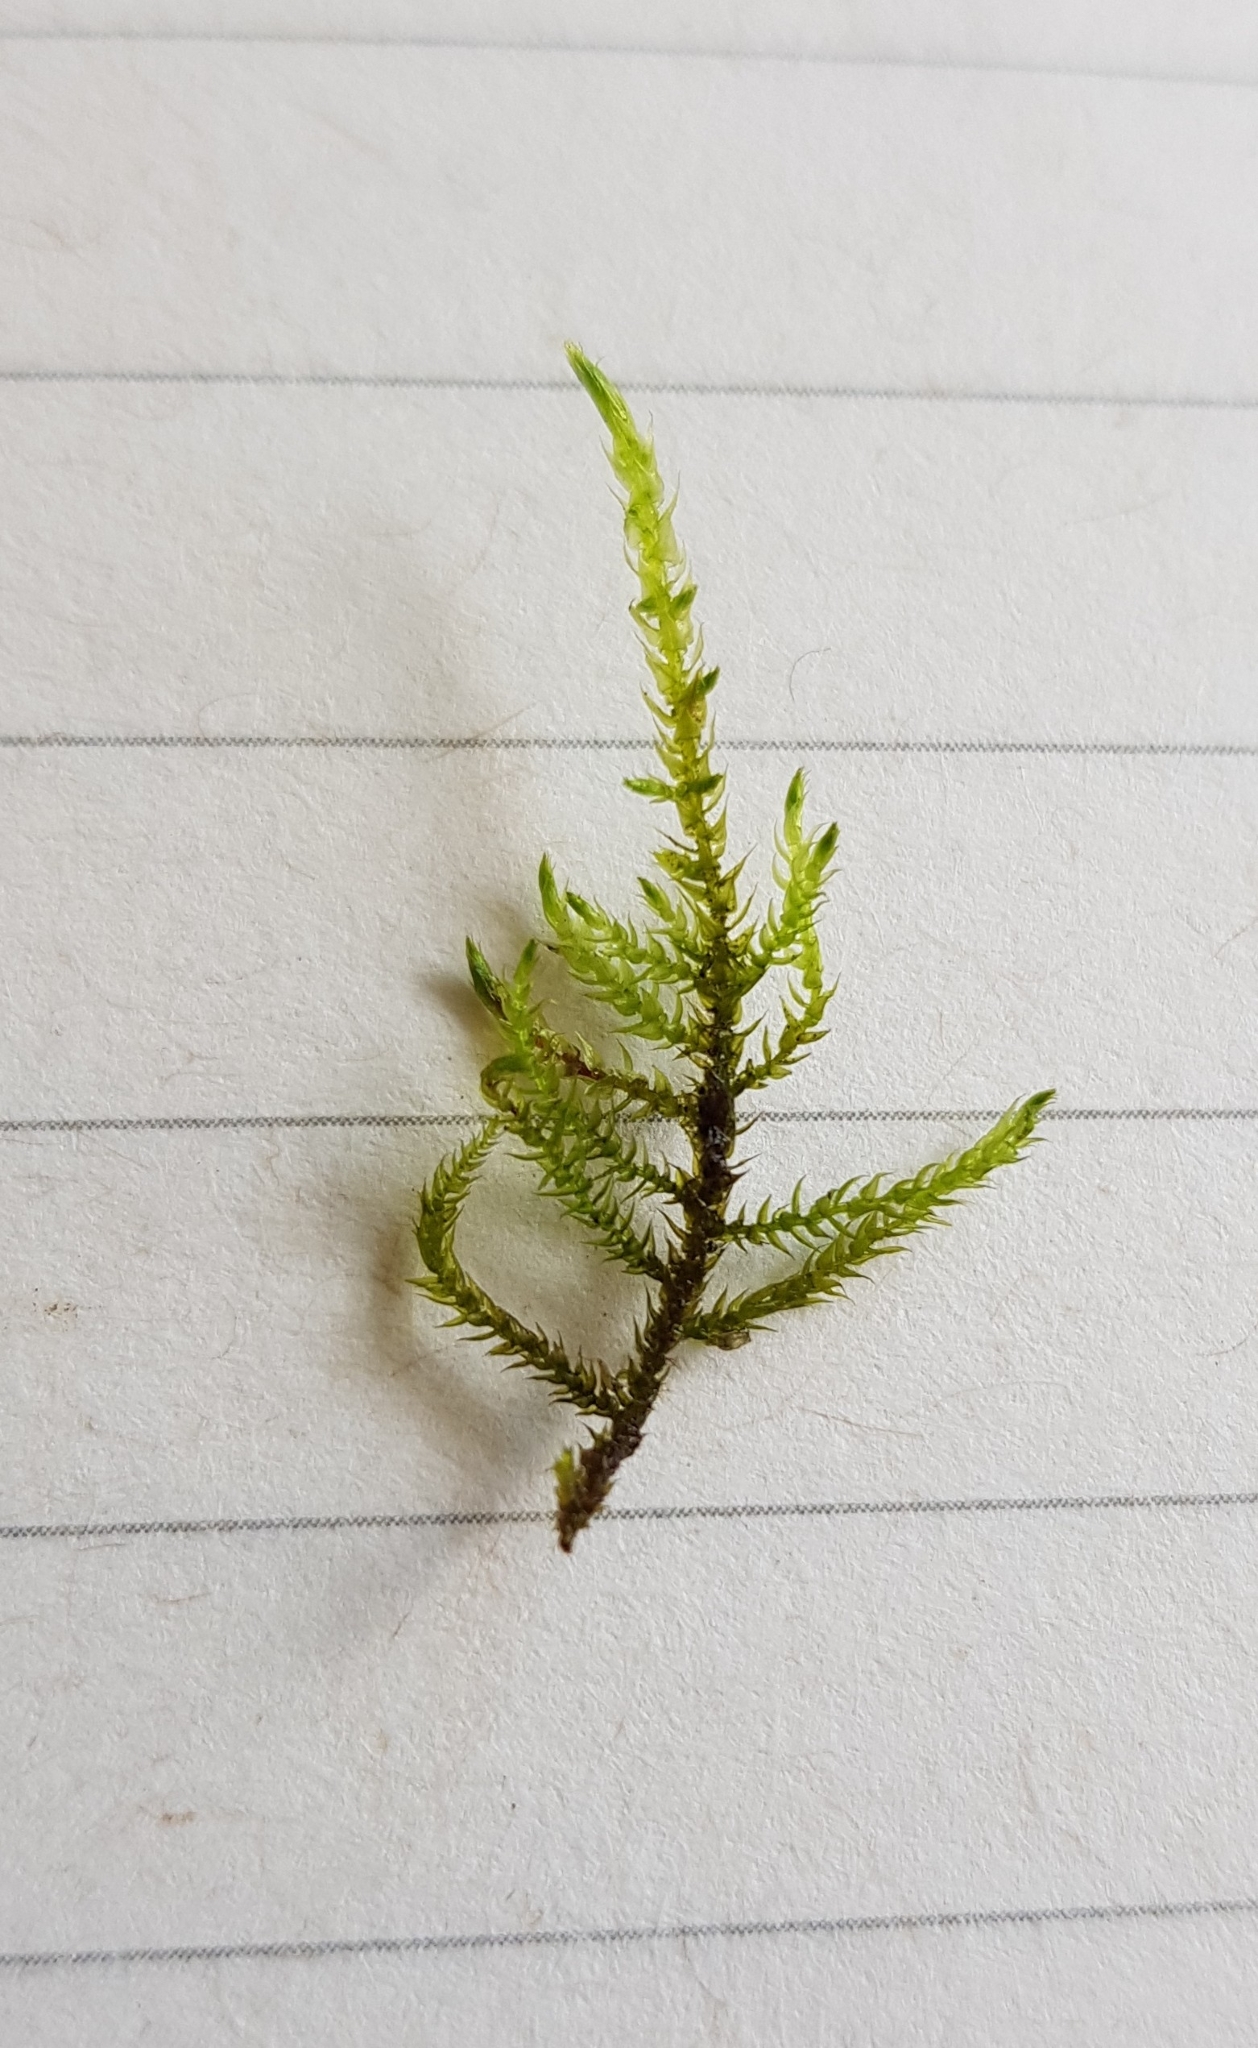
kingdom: Plantae
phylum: Bryophyta
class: Bryopsida
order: Hypnales
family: Amblystegiaceae
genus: Cratoneuron
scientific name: Cratoneuron filicinum
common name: Fern-leaved hook moss
